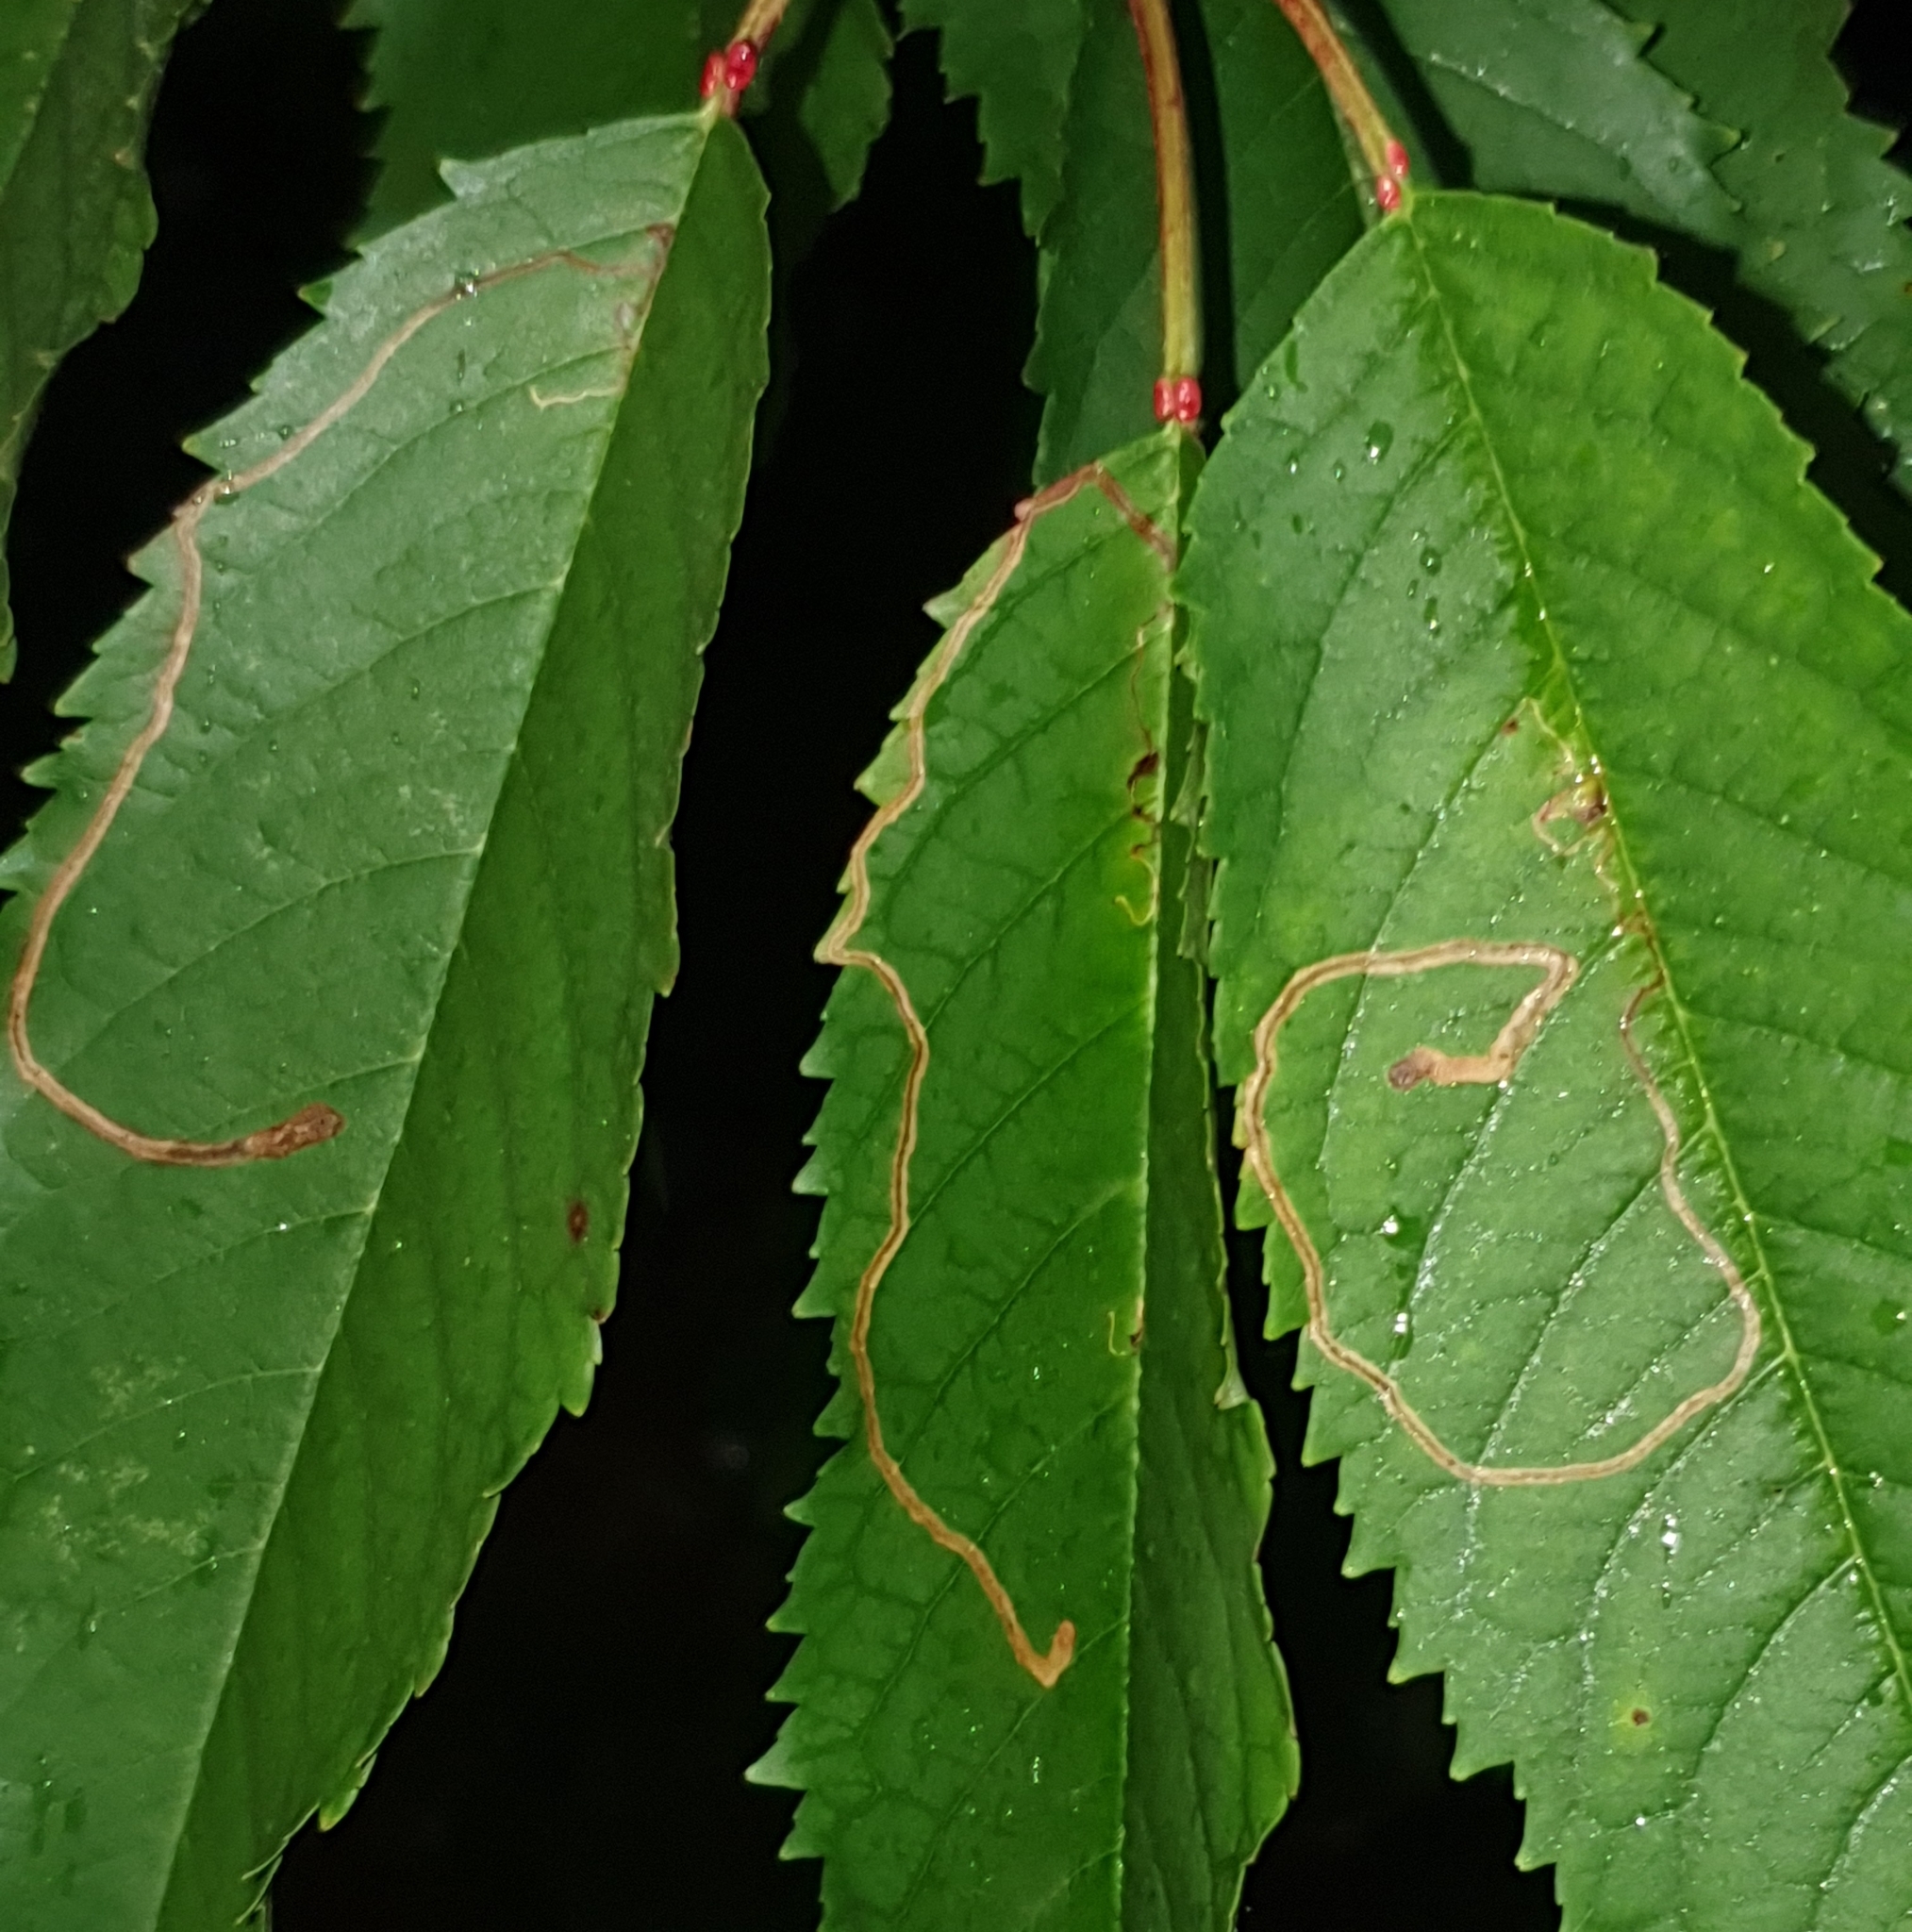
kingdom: Animalia
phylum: Arthropoda
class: Insecta
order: Lepidoptera
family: Lyonetiidae
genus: Lyonetia
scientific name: Lyonetia clerkella
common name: Apple leaf miner
